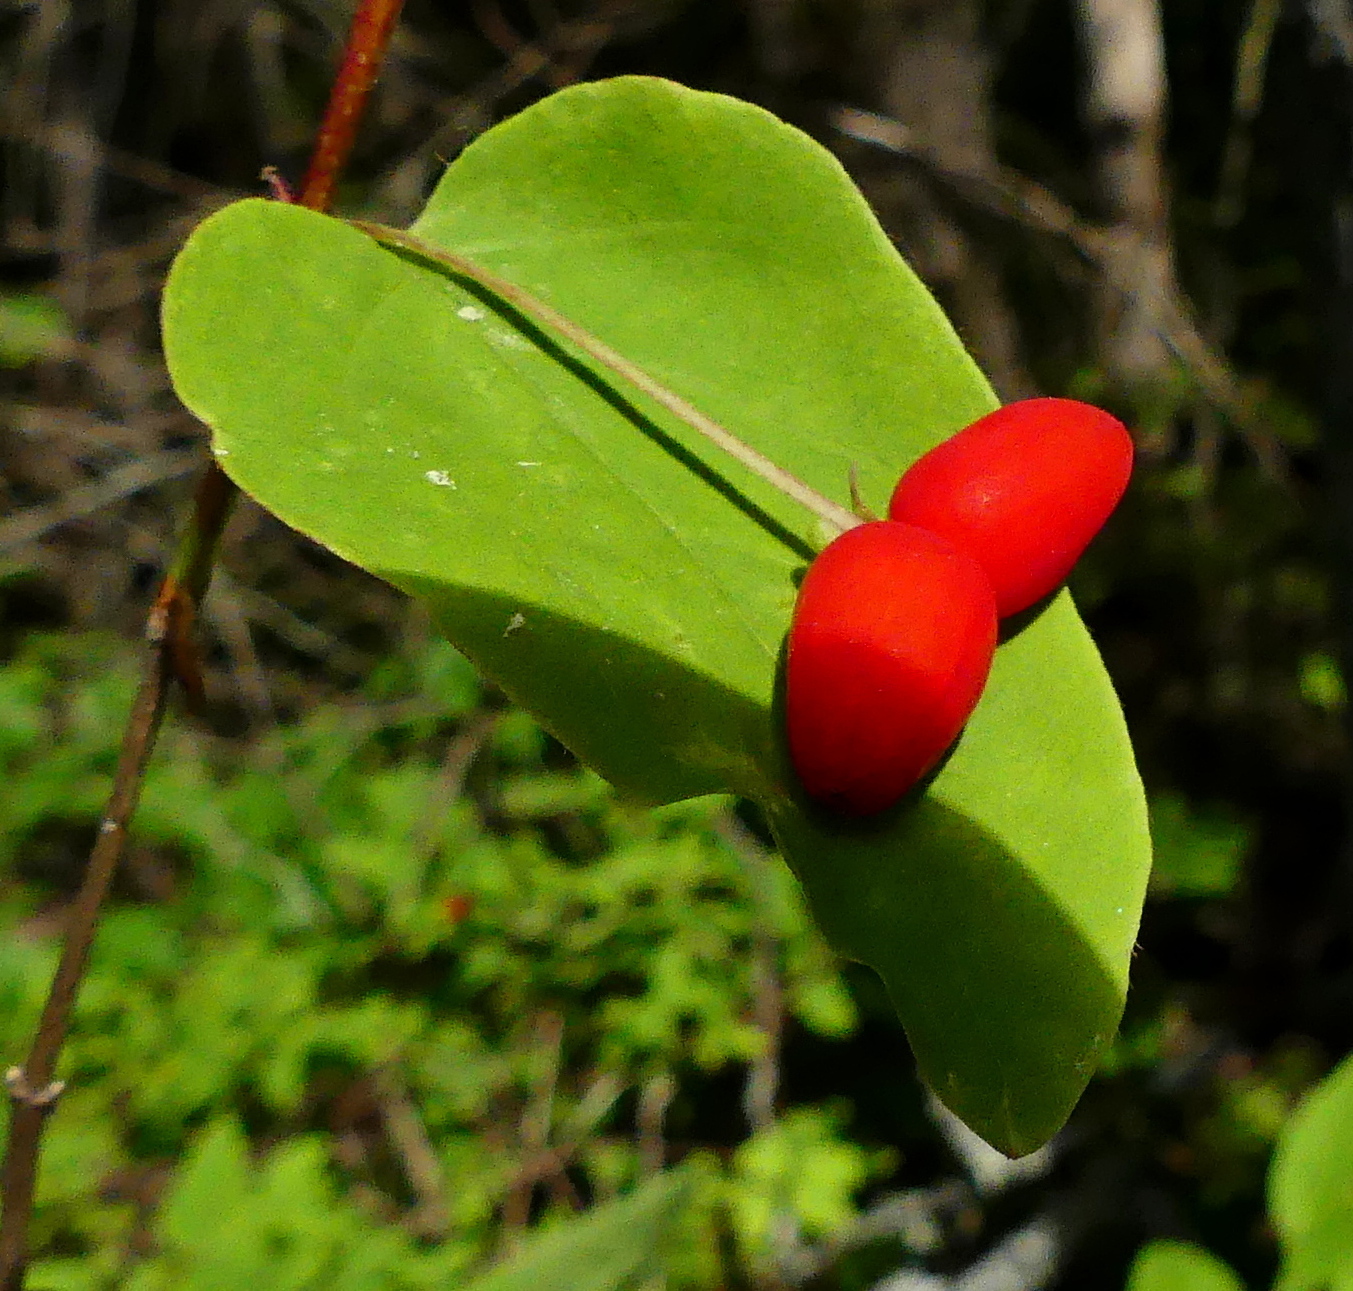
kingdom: Plantae
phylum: Tracheophyta
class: Magnoliopsida
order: Dipsacales
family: Caprifoliaceae
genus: Lonicera
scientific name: Lonicera canadensis
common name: American fly-honeysuckle
